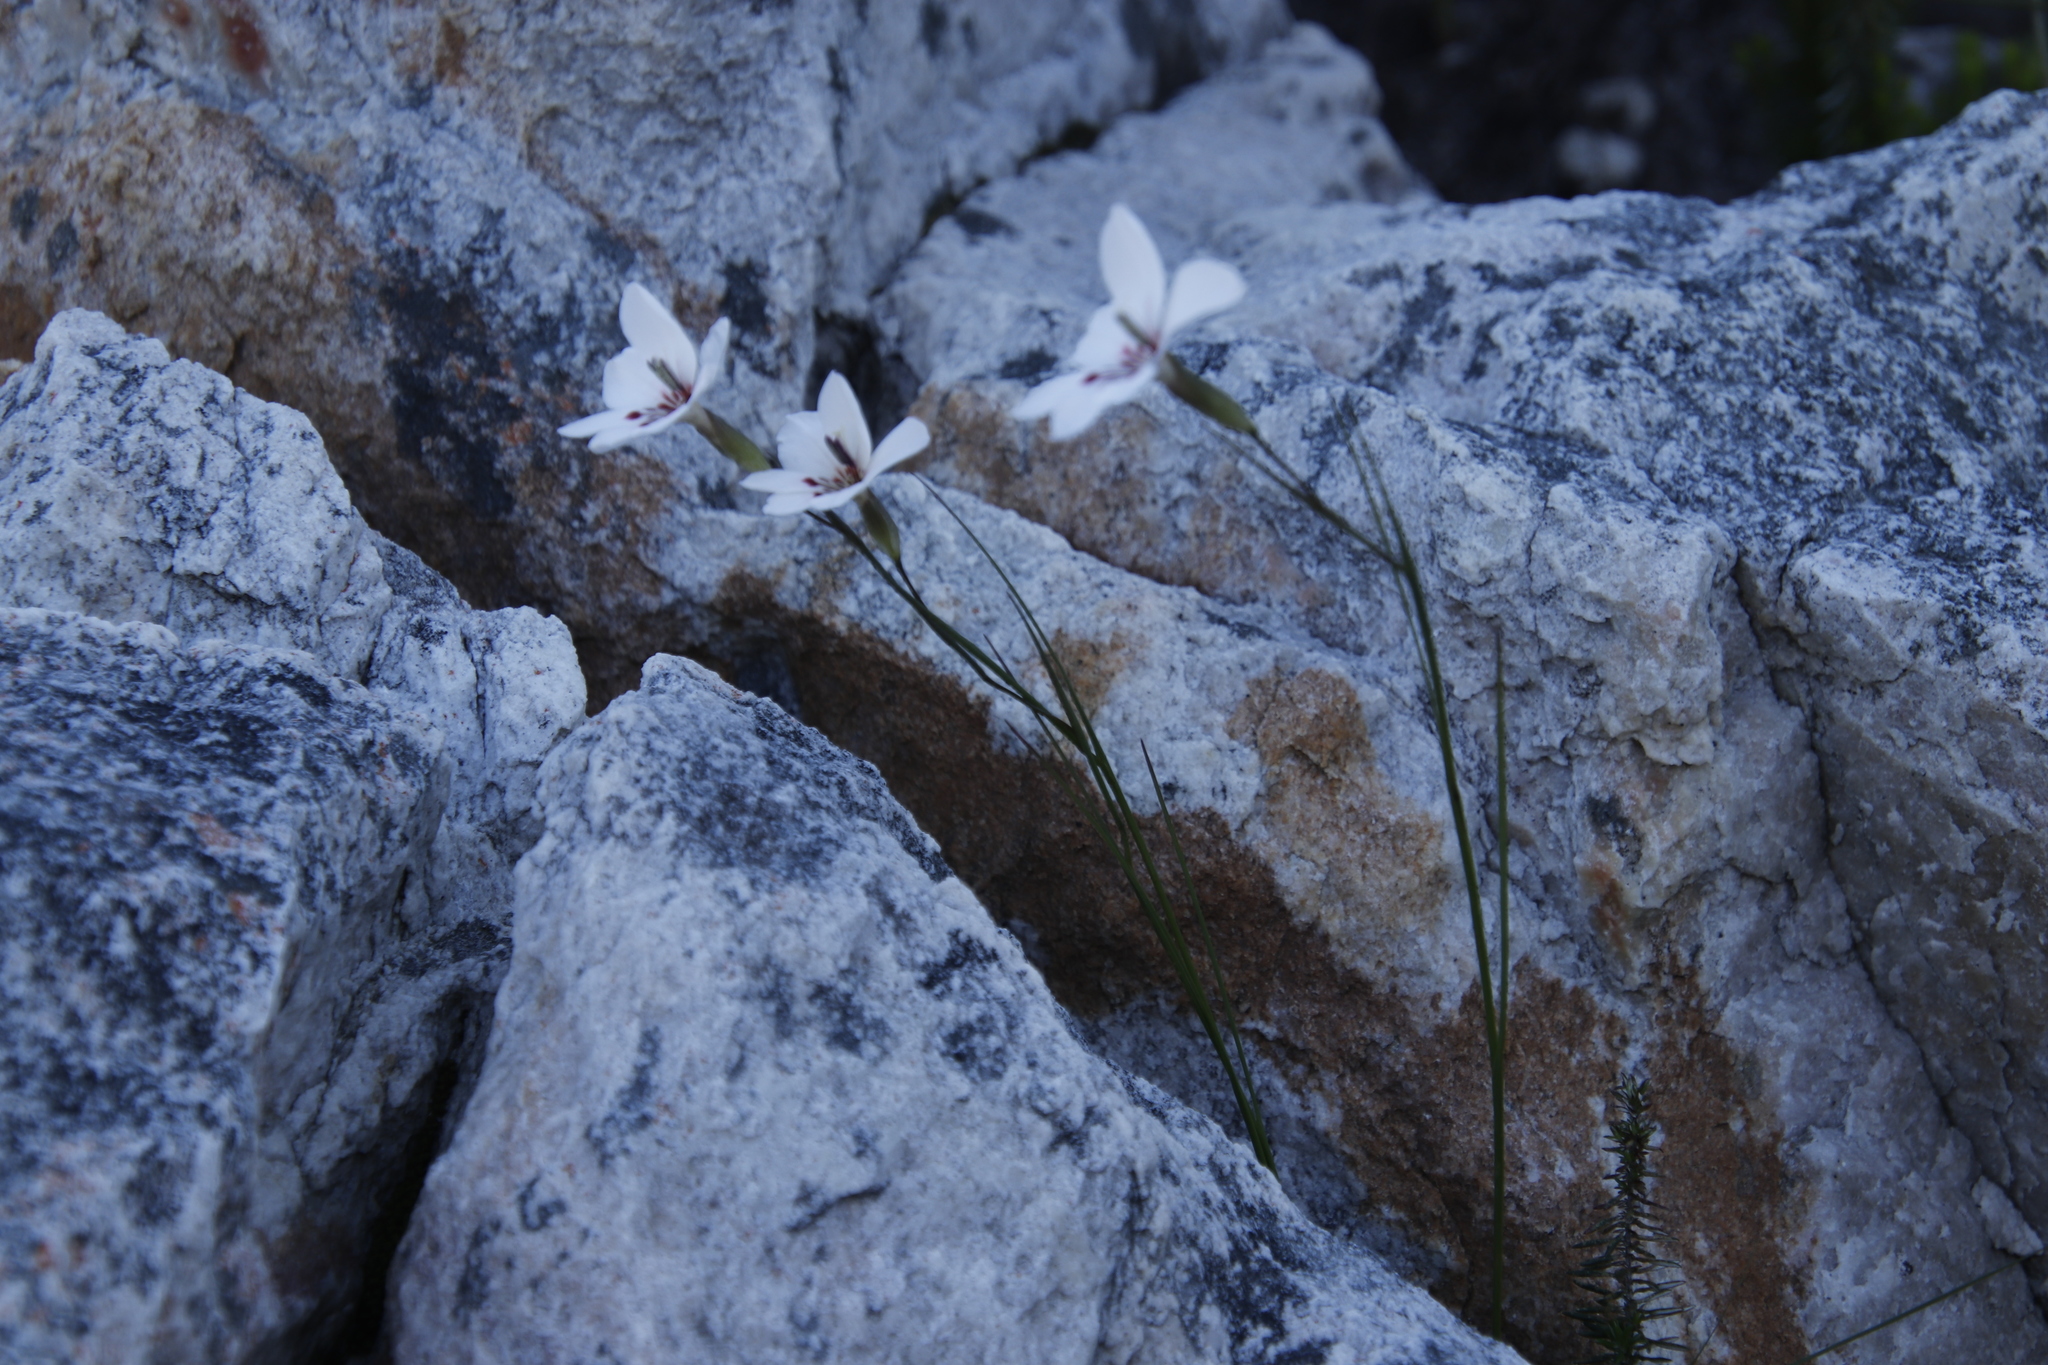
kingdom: Plantae
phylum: Tracheophyta
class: Liliopsida
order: Asparagales
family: Iridaceae
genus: Gladiolus
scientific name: Gladiolus debilis
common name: Painted-lady
